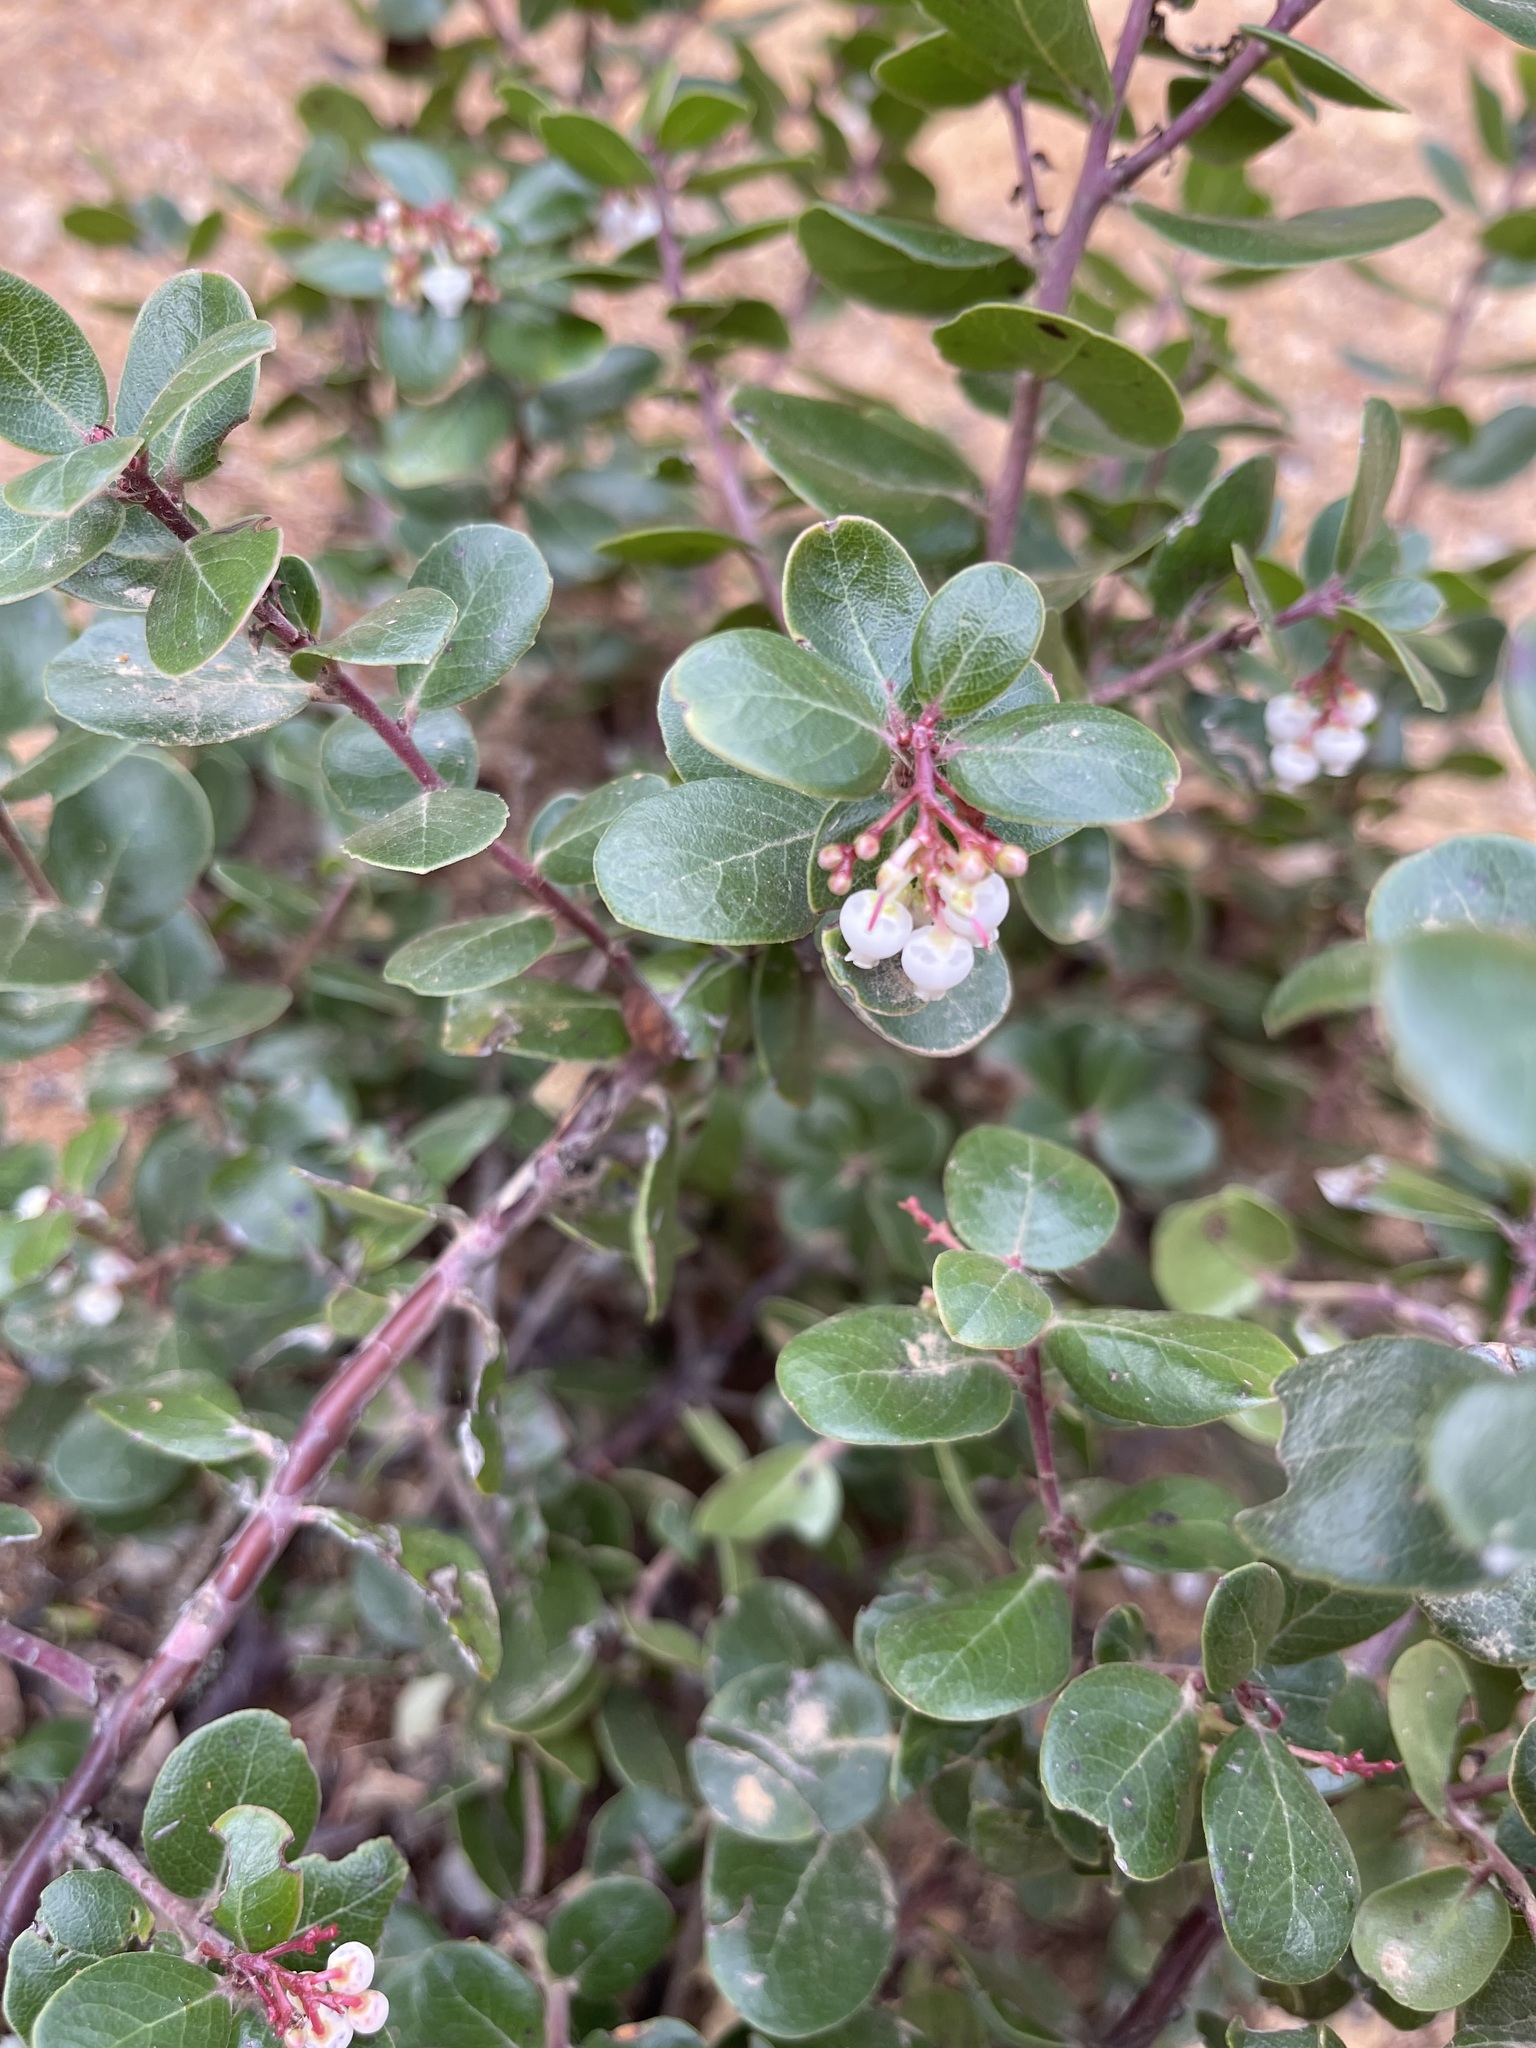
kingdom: Plantae
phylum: Tracheophyta
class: Magnoliopsida
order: Ericales
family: Ericaceae
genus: Arctostaphylos
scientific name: Arctostaphylos nummularia
